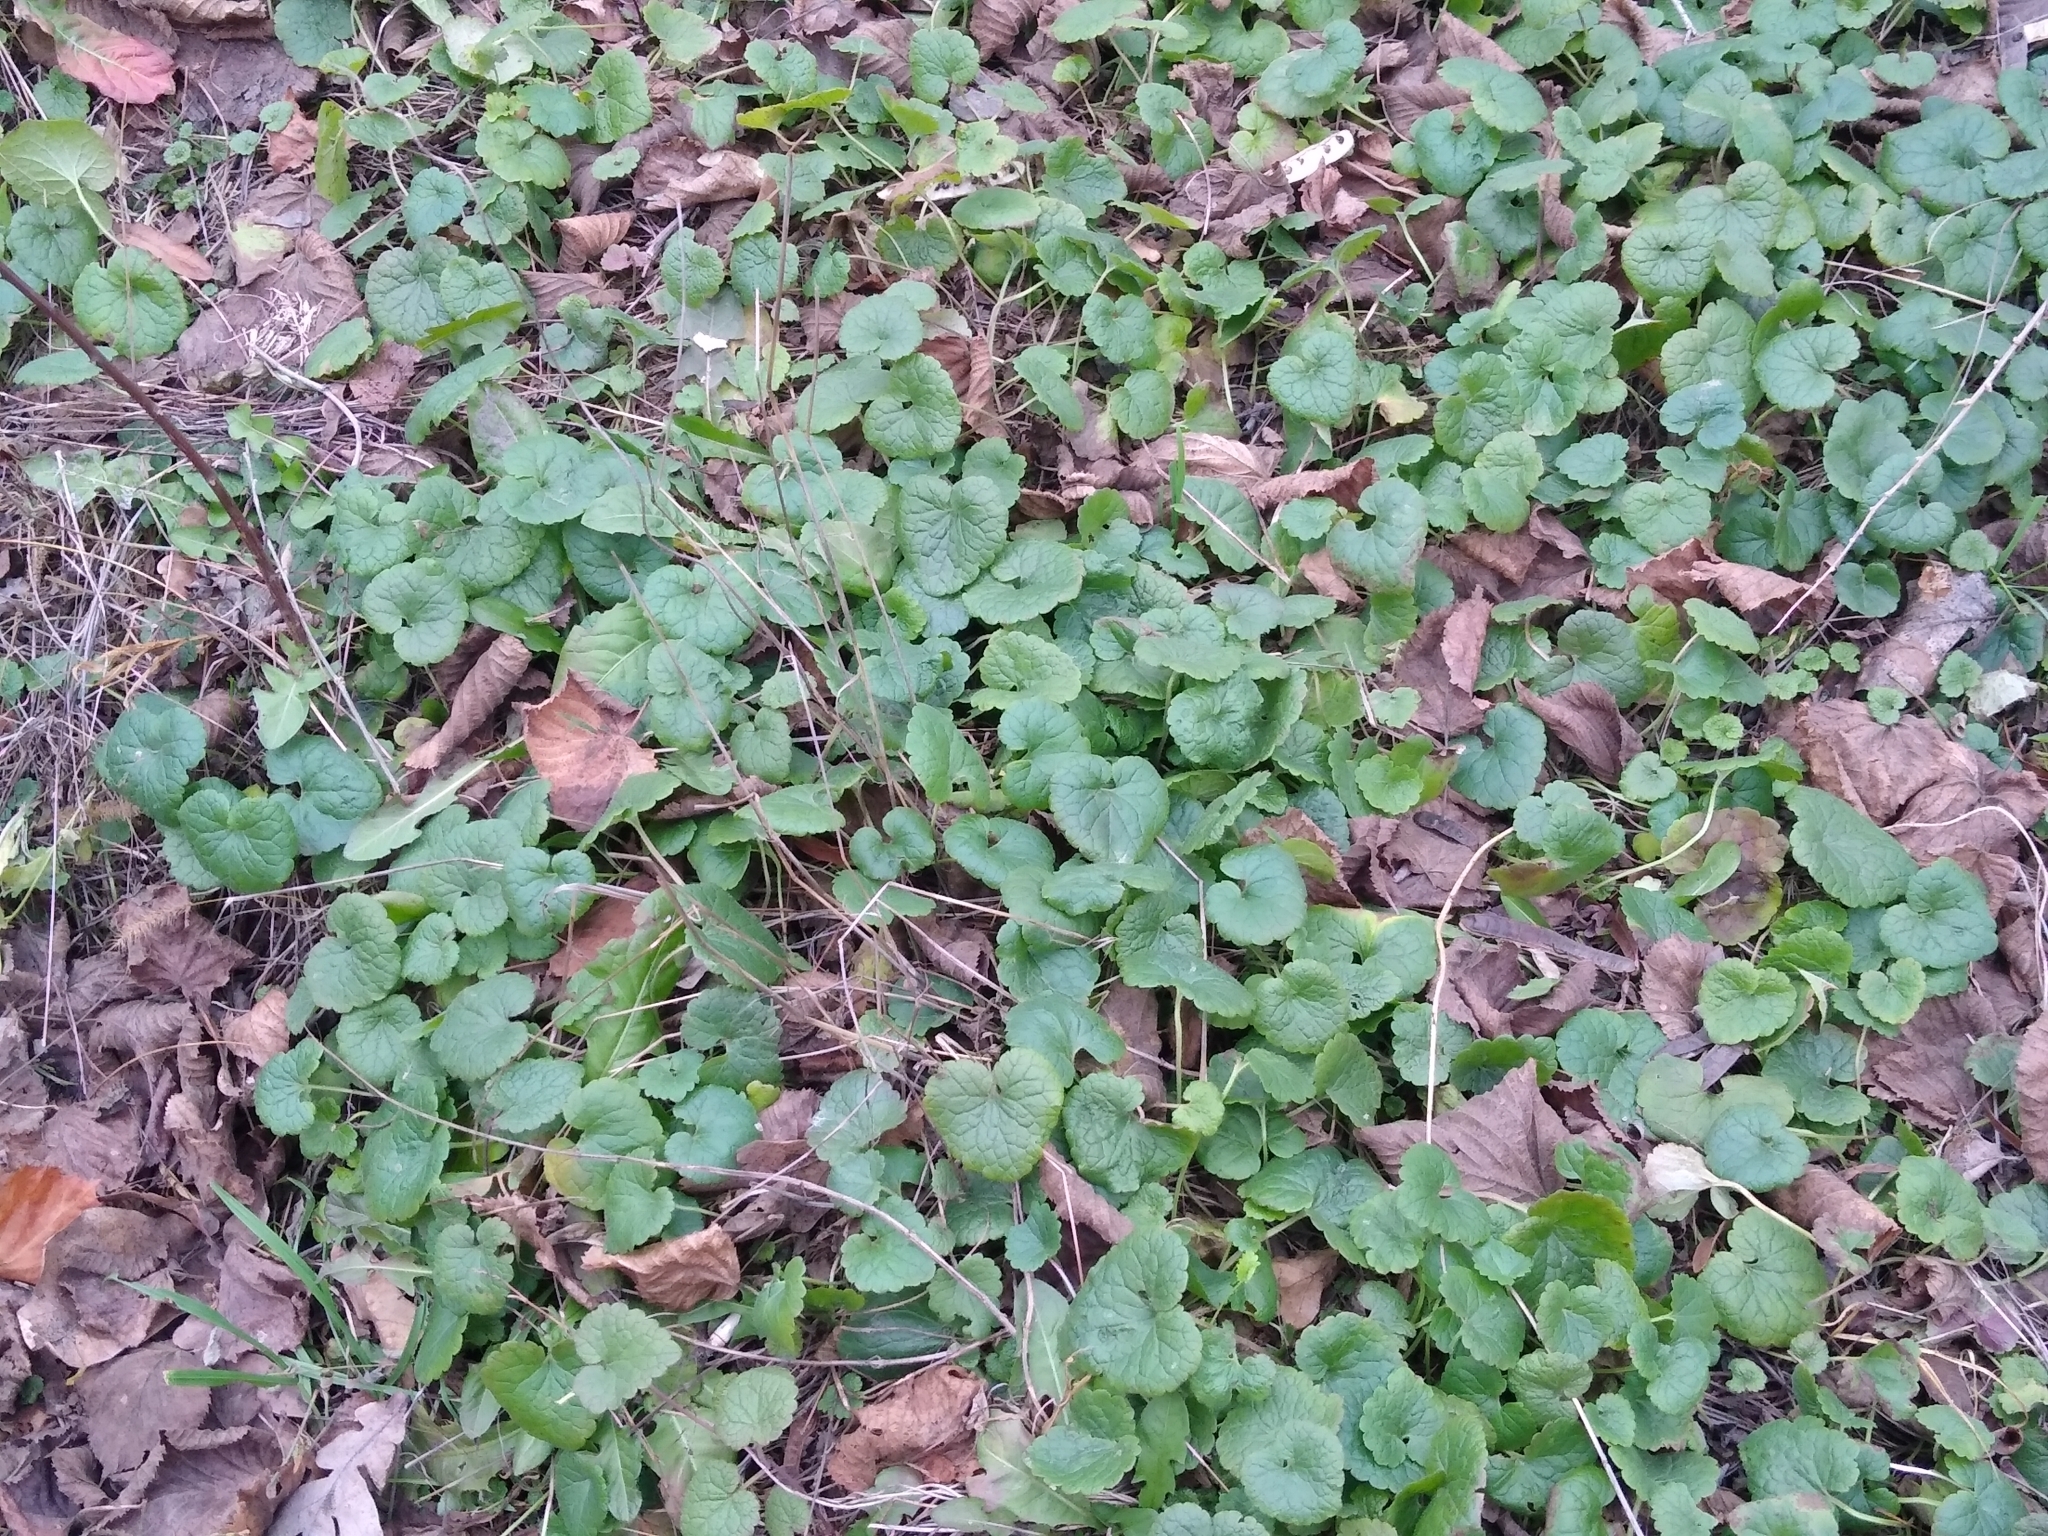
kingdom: Plantae
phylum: Tracheophyta
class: Magnoliopsida
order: Lamiales
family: Lamiaceae
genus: Glechoma
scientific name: Glechoma hederacea
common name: Ground ivy
